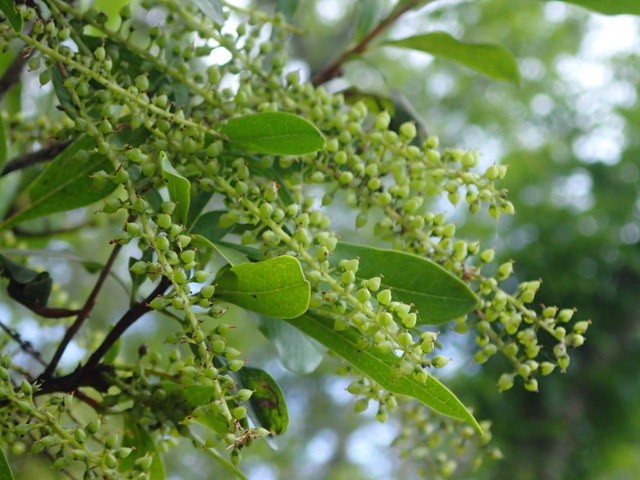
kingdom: Plantae
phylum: Tracheophyta
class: Magnoliopsida
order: Ericales
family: Cyrillaceae
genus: Cyrilla
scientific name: Cyrilla racemiflora
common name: Black titi
